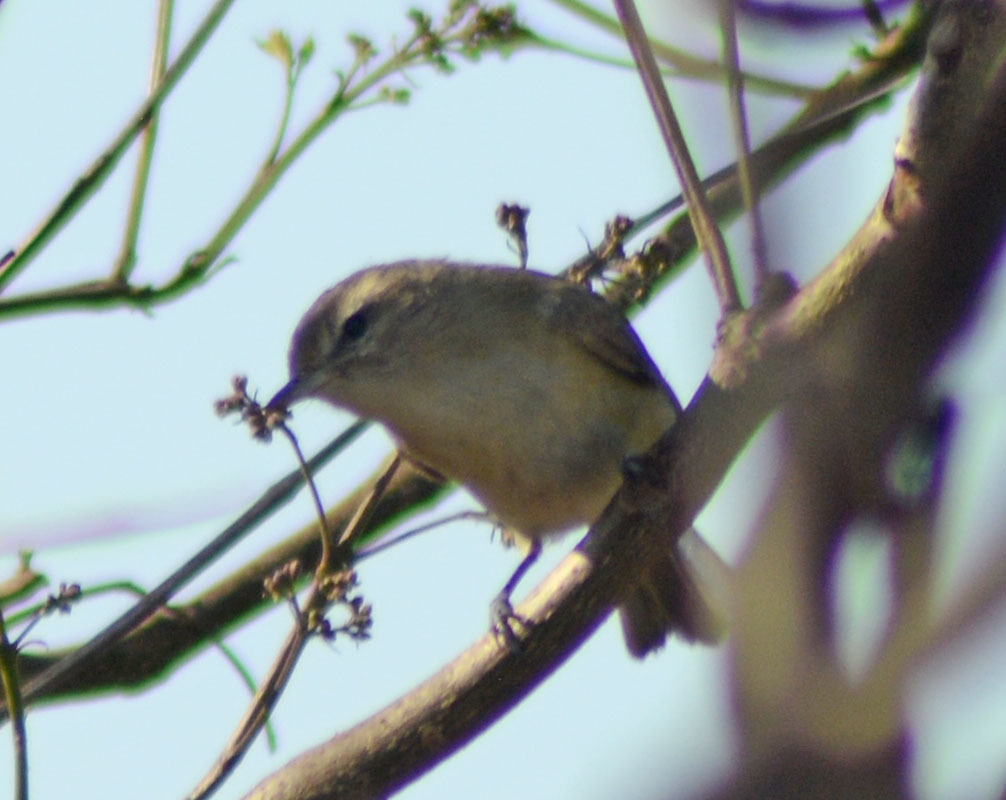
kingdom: Animalia
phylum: Chordata
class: Aves
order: Passeriformes
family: Vireonidae
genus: Vireo
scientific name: Vireo gilvus
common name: Warbling vireo
